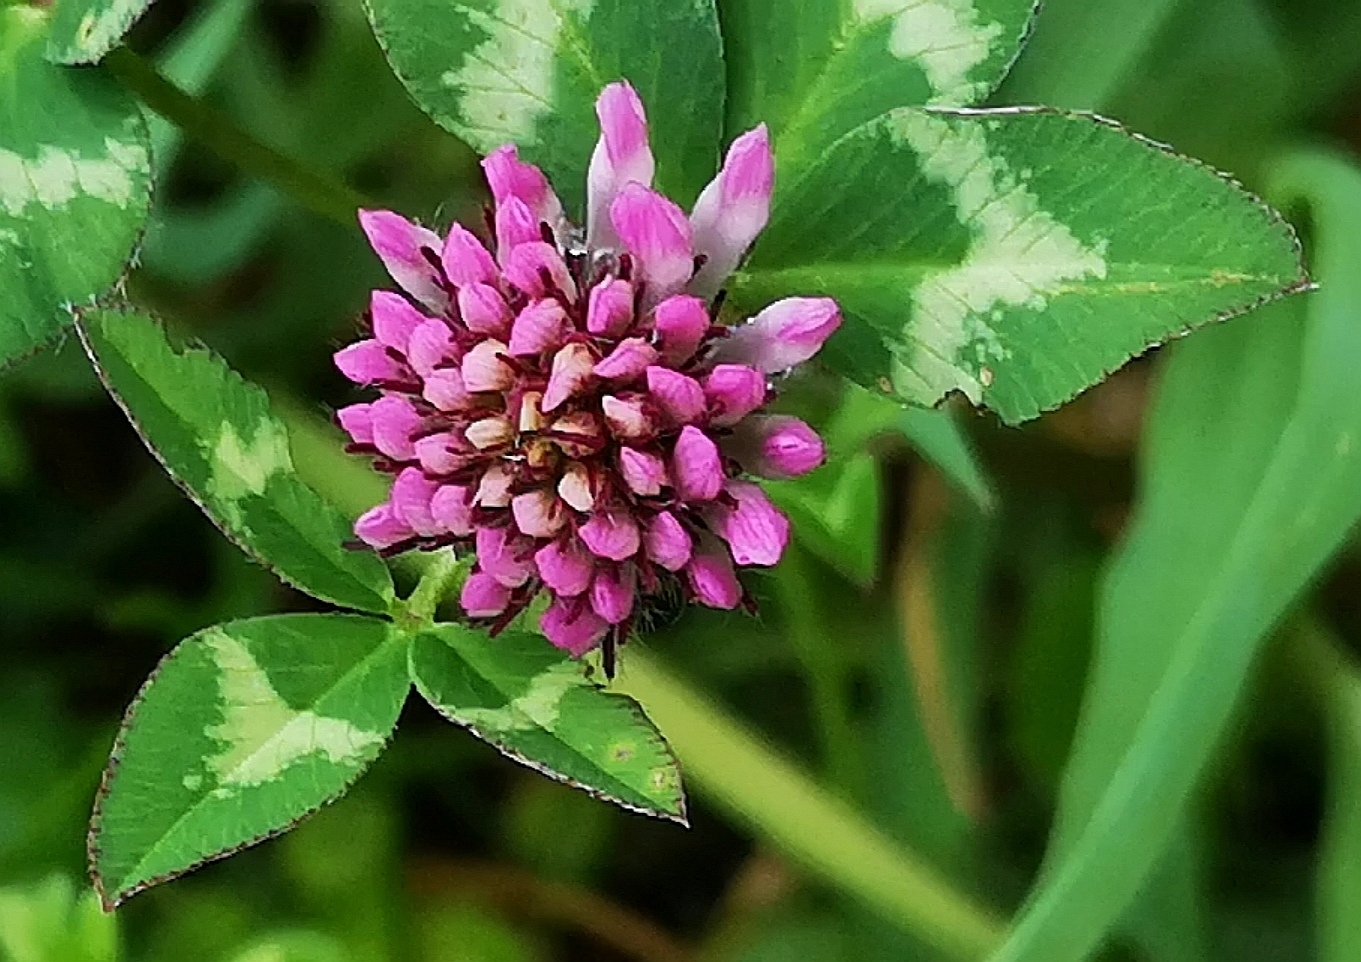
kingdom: Plantae
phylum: Tracheophyta
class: Magnoliopsida
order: Fabales
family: Fabaceae
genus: Trifolium
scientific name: Trifolium pratense
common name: Red clover
